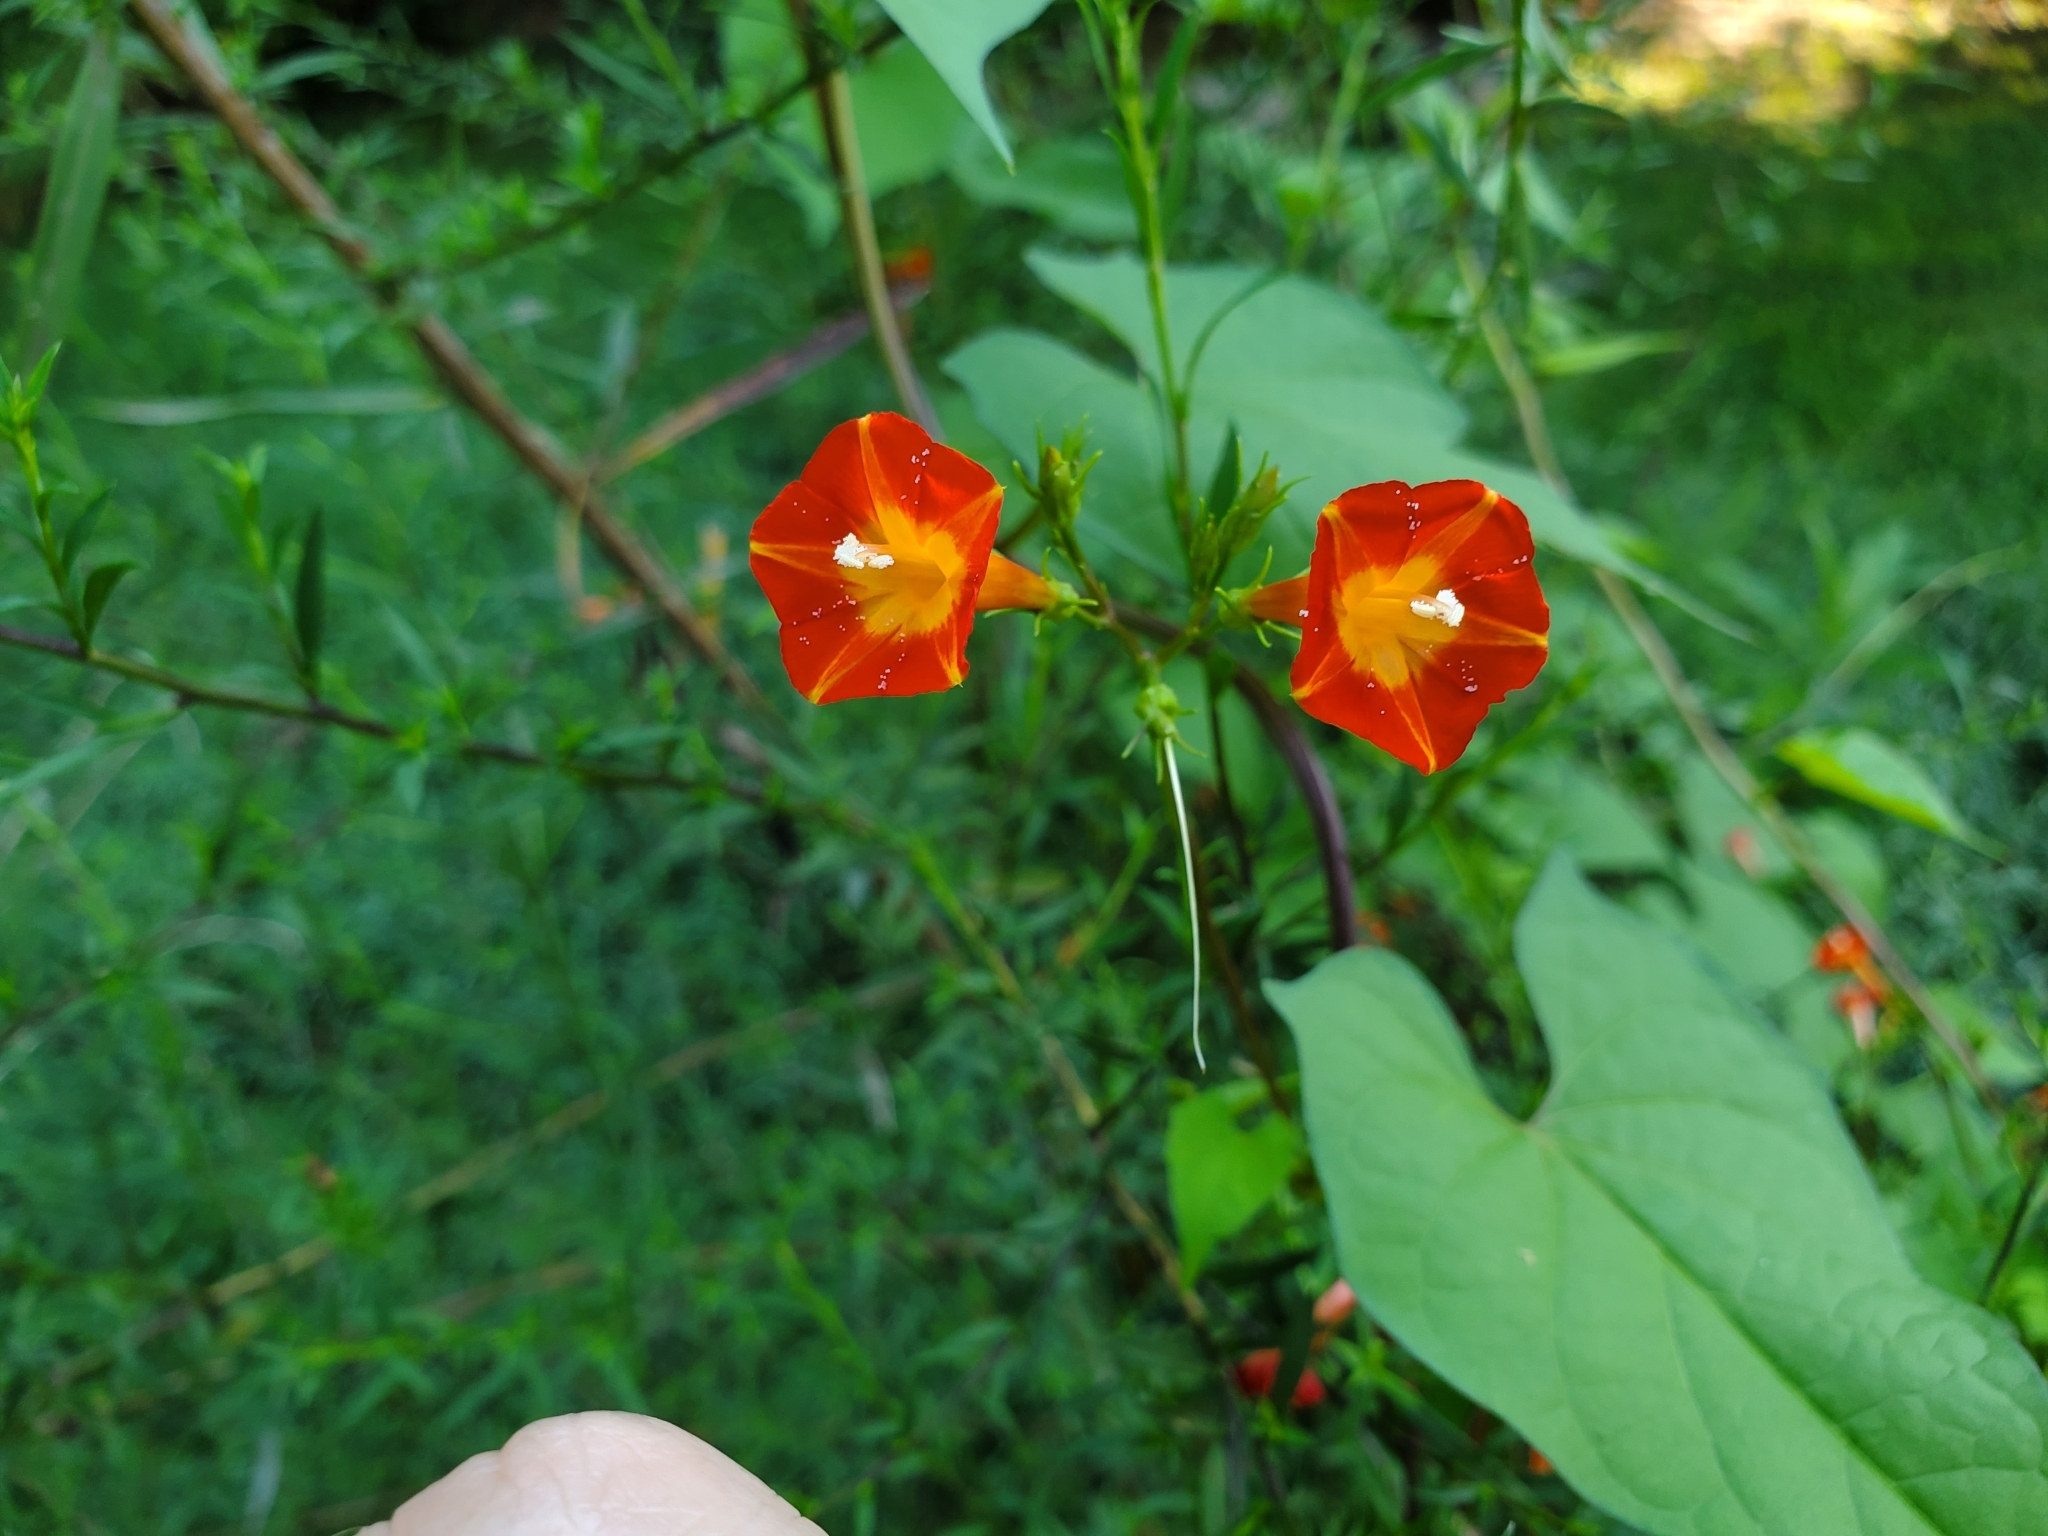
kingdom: Plantae
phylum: Tracheophyta
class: Magnoliopsida
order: Solanales
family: Convolvulaceae
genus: Ipomoea
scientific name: Ipomoea coccinea
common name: Red morning-glory
